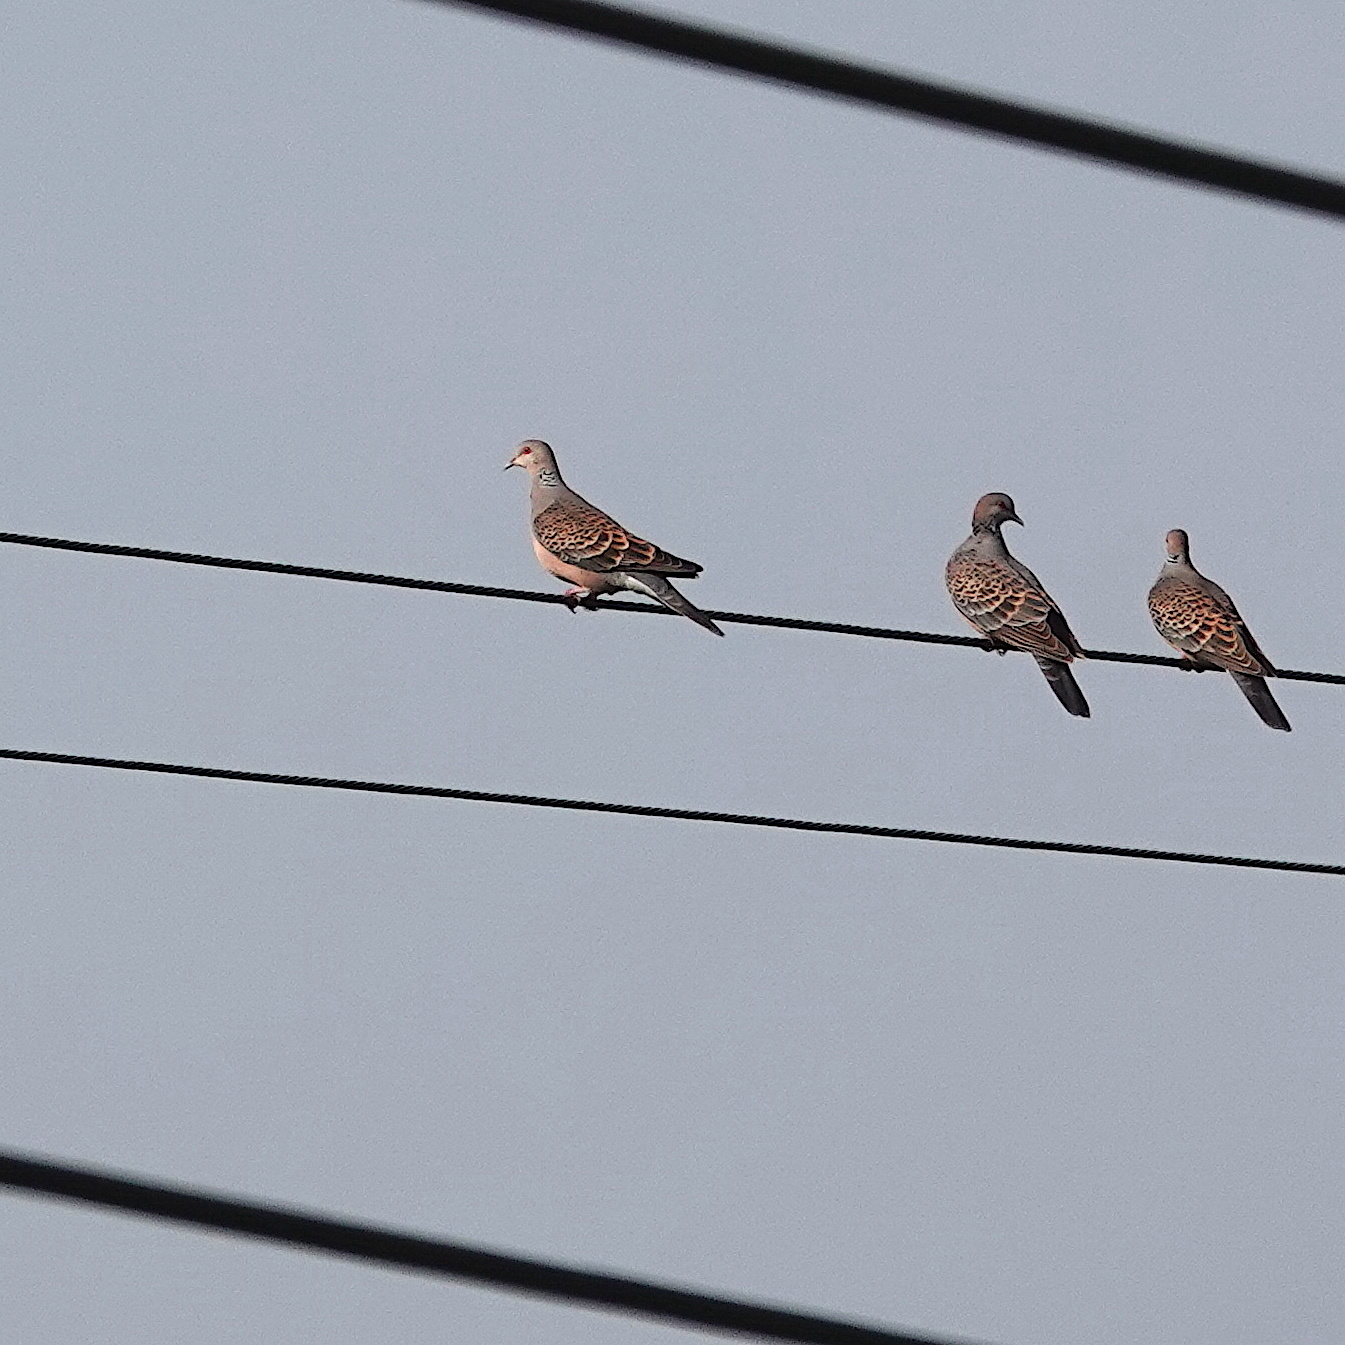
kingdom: Animalia
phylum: Chordata
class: Aves
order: Columbiformes
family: Columbidae
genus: Streptopelia
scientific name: Streptopelia orientalis
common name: Oriental turtle dove
